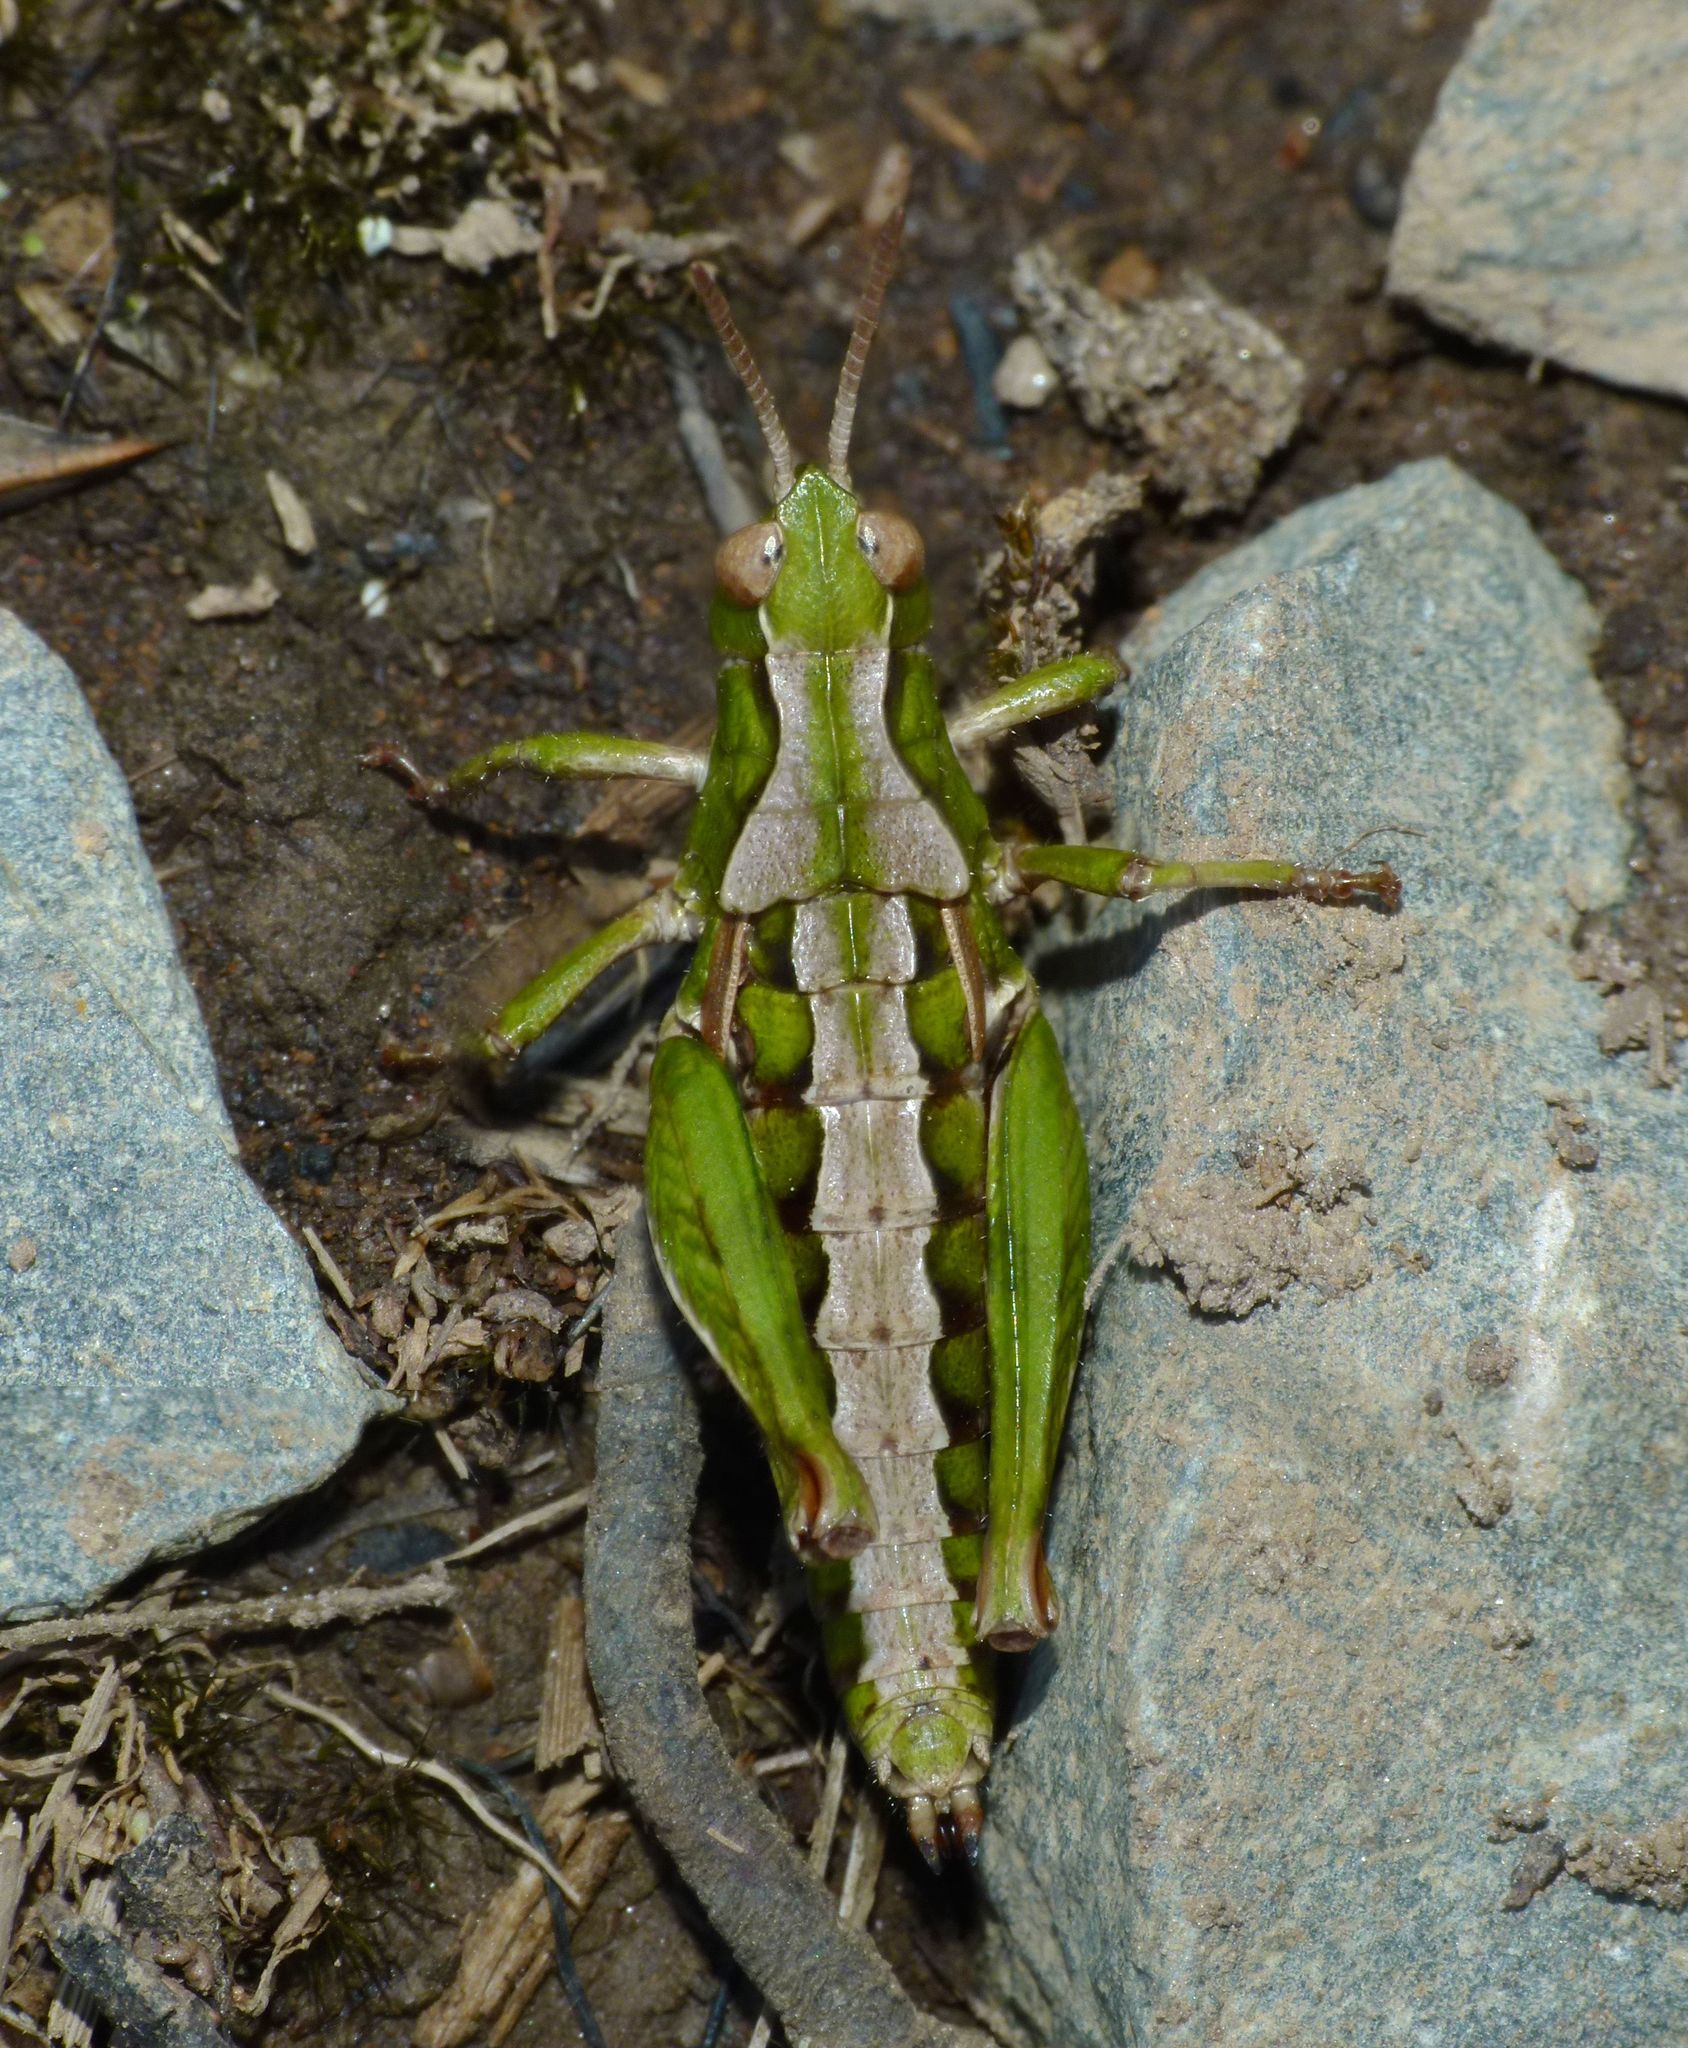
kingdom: Animalia
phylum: Arthropoda
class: Insecta
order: Orthoptera
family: Acrididae
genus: Sigaus
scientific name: Sigaus campestris
